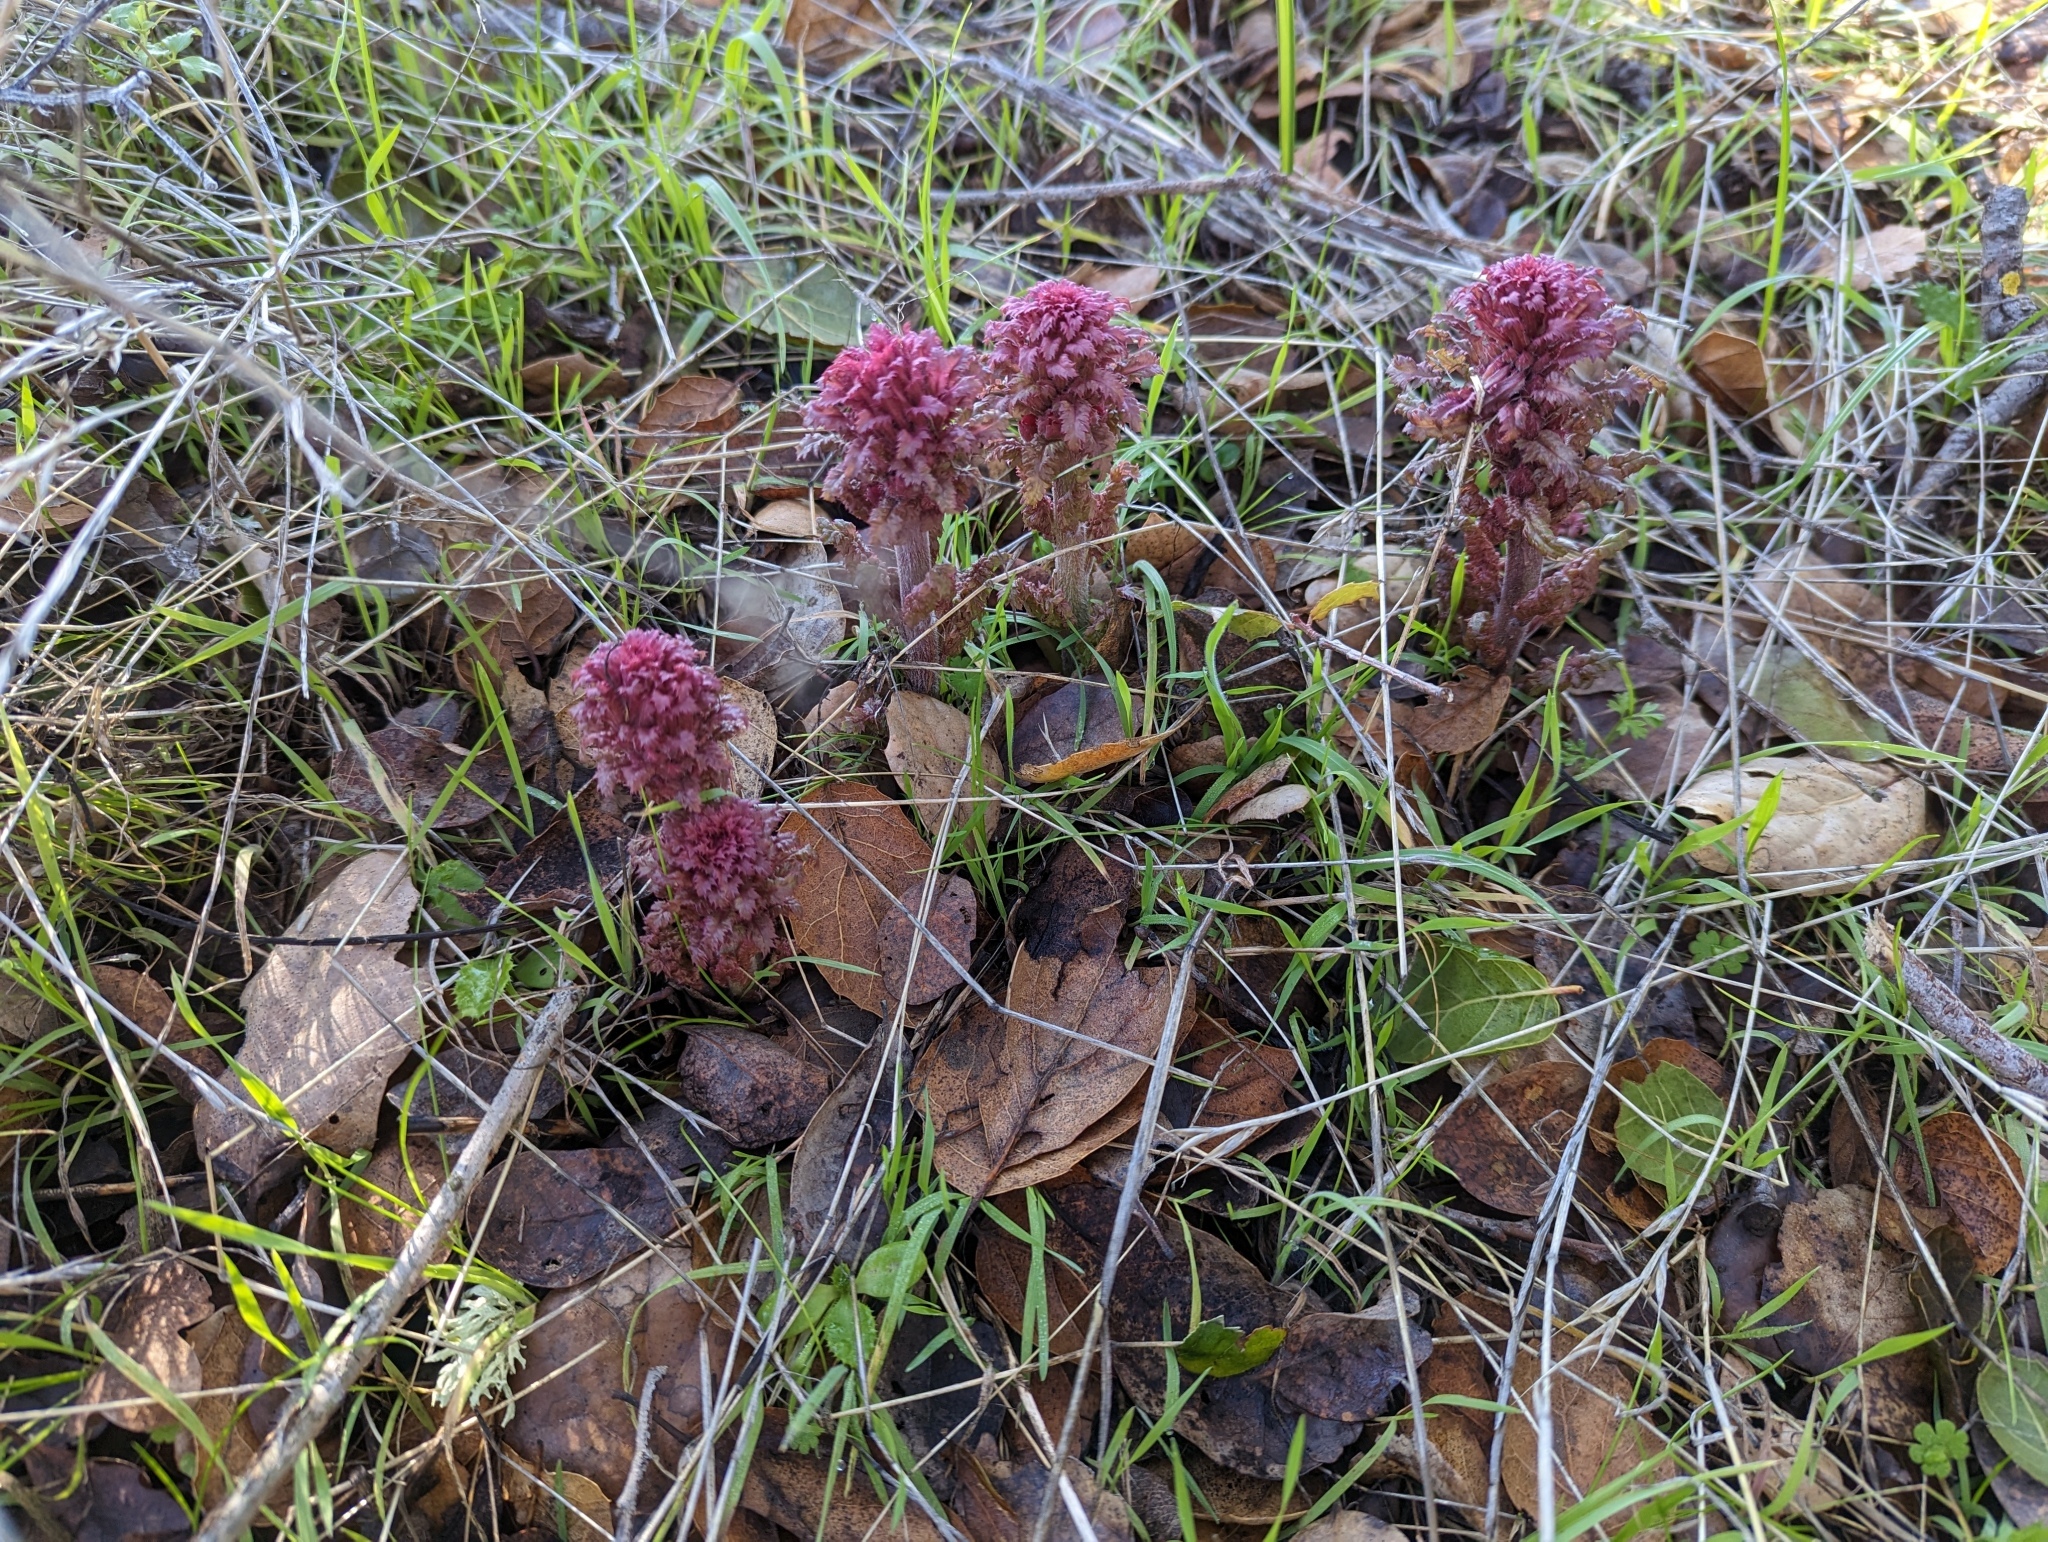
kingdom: Plantae
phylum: Tracheophyta
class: Magnoliopsida
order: Lamiales
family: Orobanchaceae
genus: Pedicularis
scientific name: Pedicularis densiflora
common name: Indian warrior
